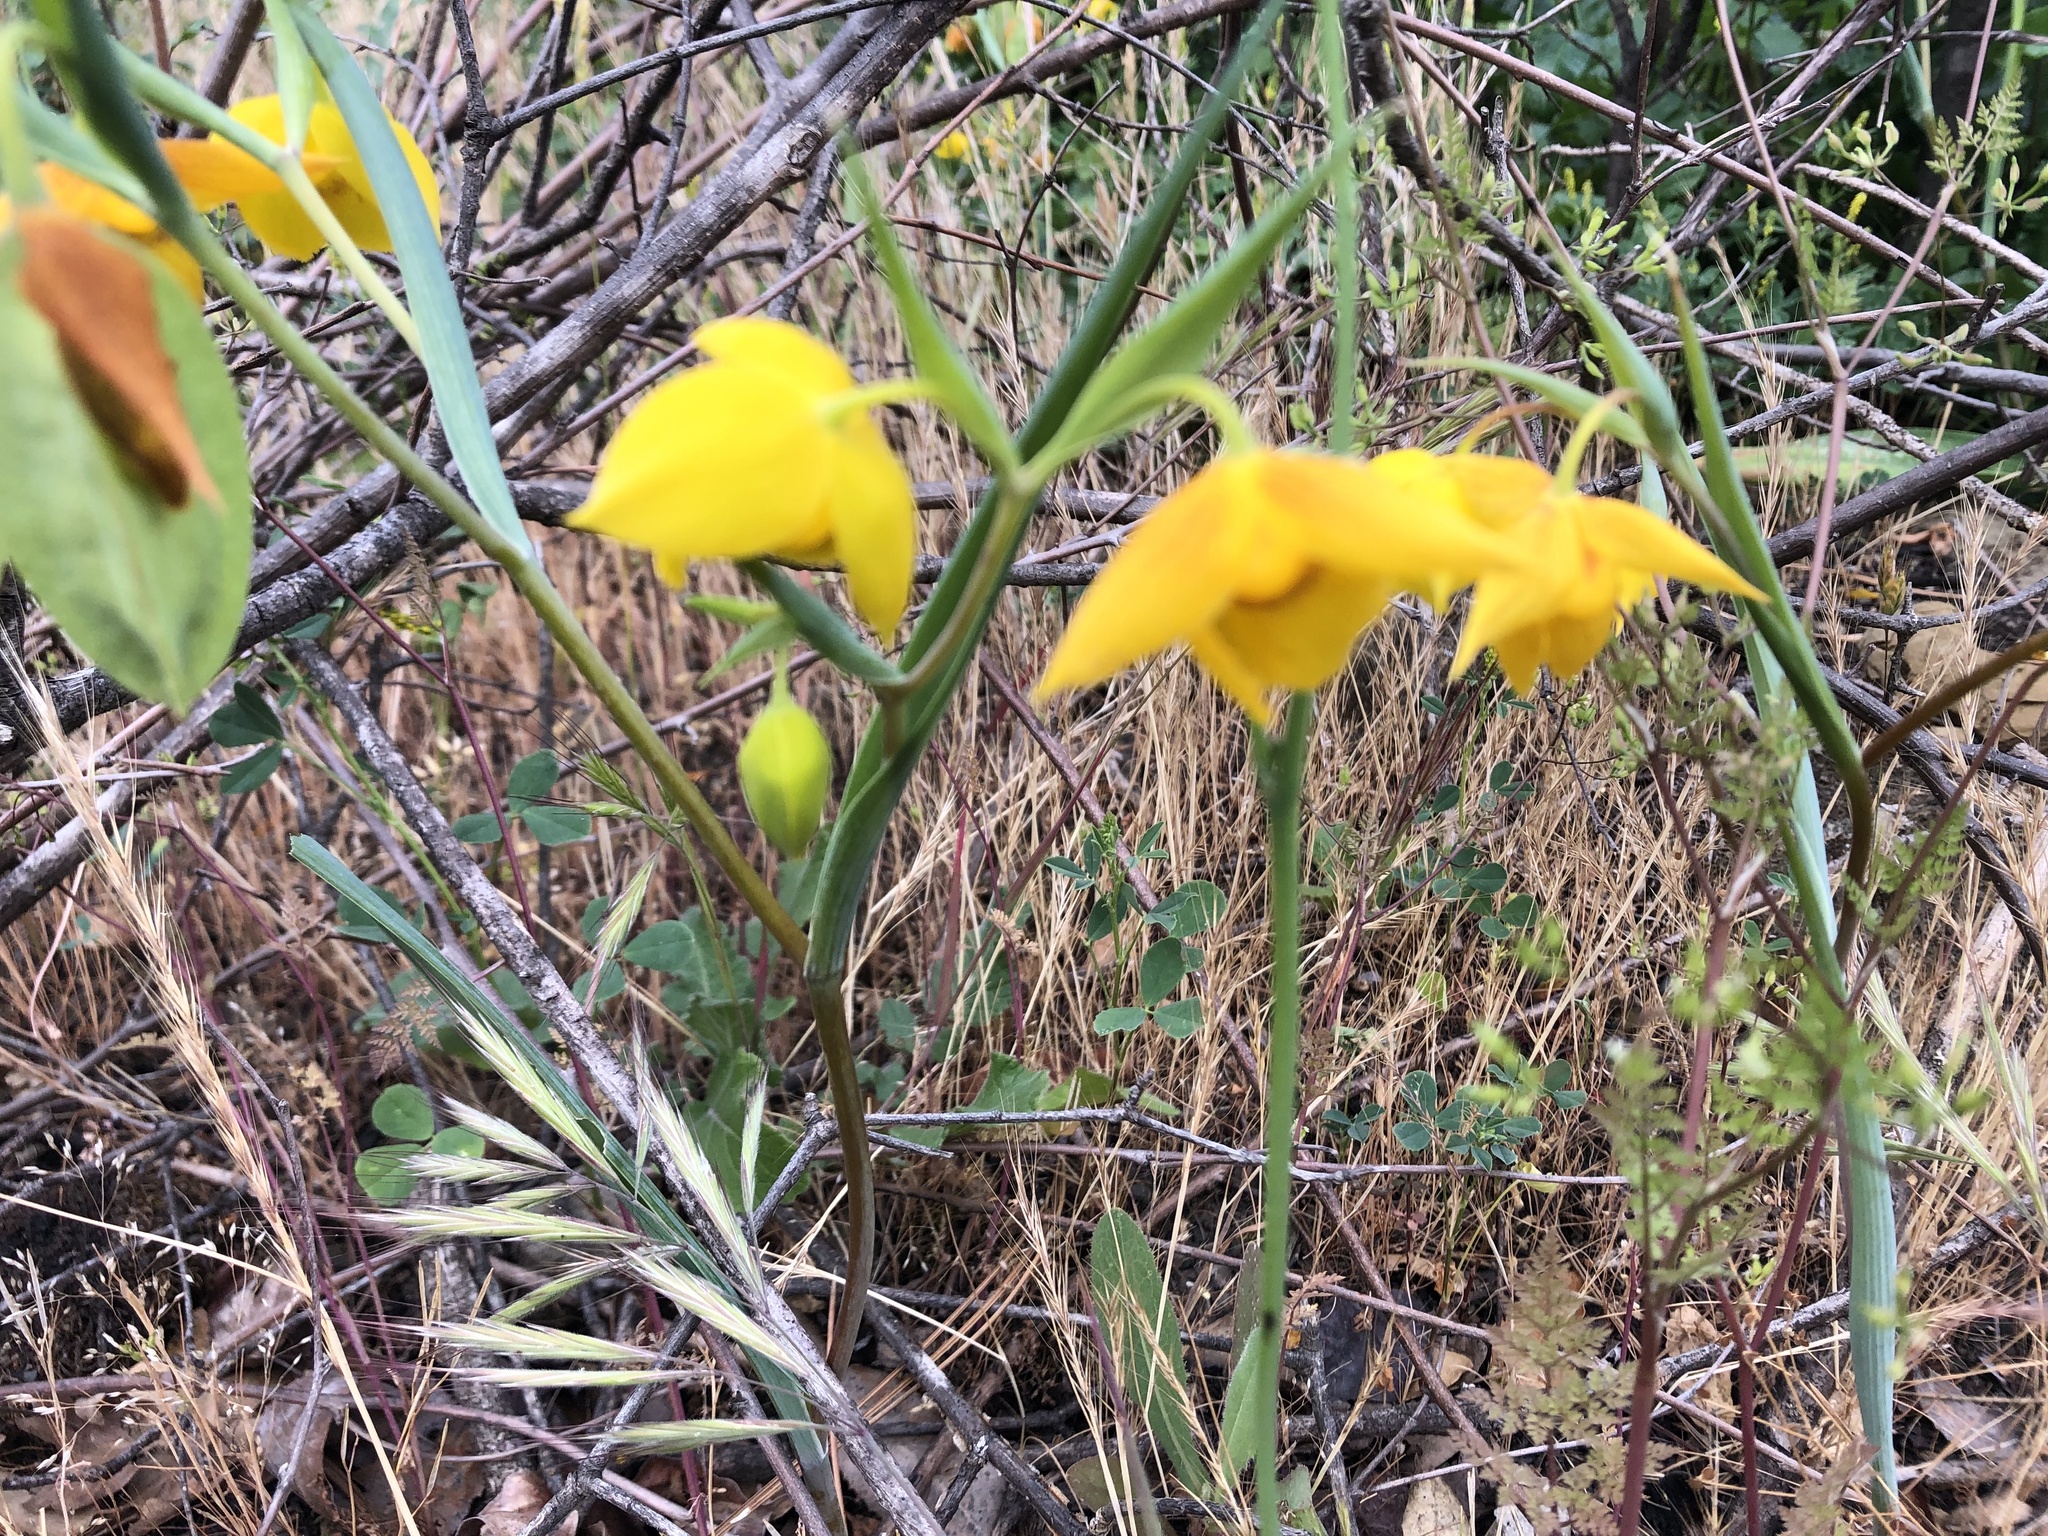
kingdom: Plantae
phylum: Tracheophyta
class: Liliopsida
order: Liliales
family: Liliaceae
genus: Calochortus
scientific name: Calochortus amabilis
